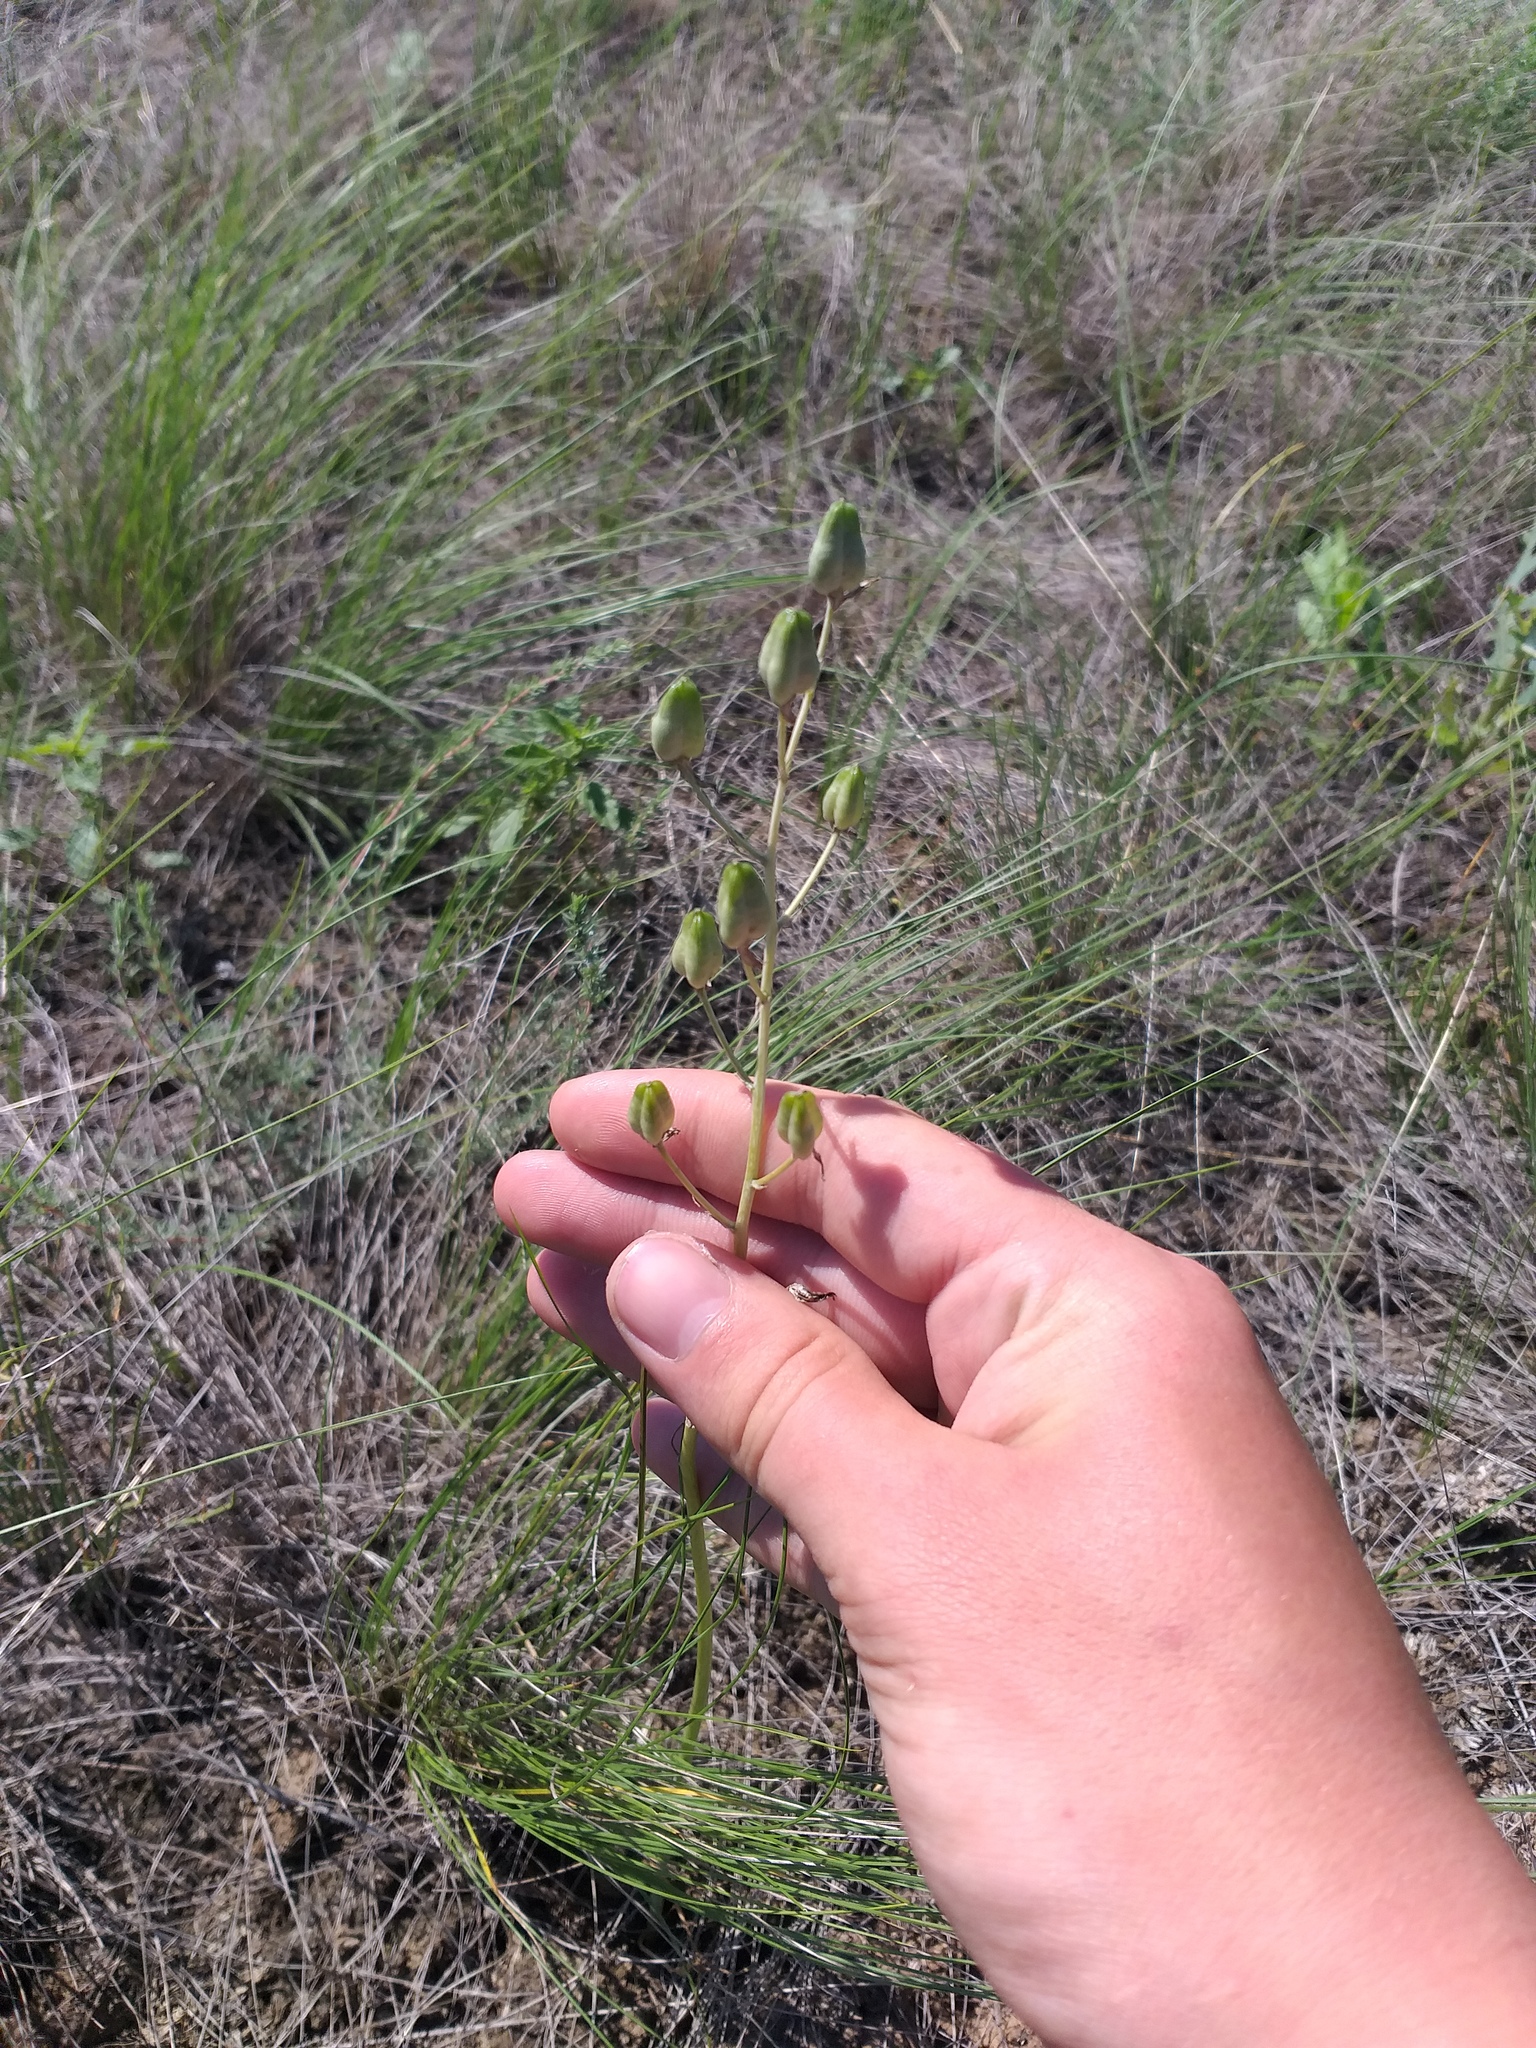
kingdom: Plantae
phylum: Tracheophyta
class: Liliopsida
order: Asparagales
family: Asparagaceae
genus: Ornithogalum
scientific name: Ornithogalum fischerianum
